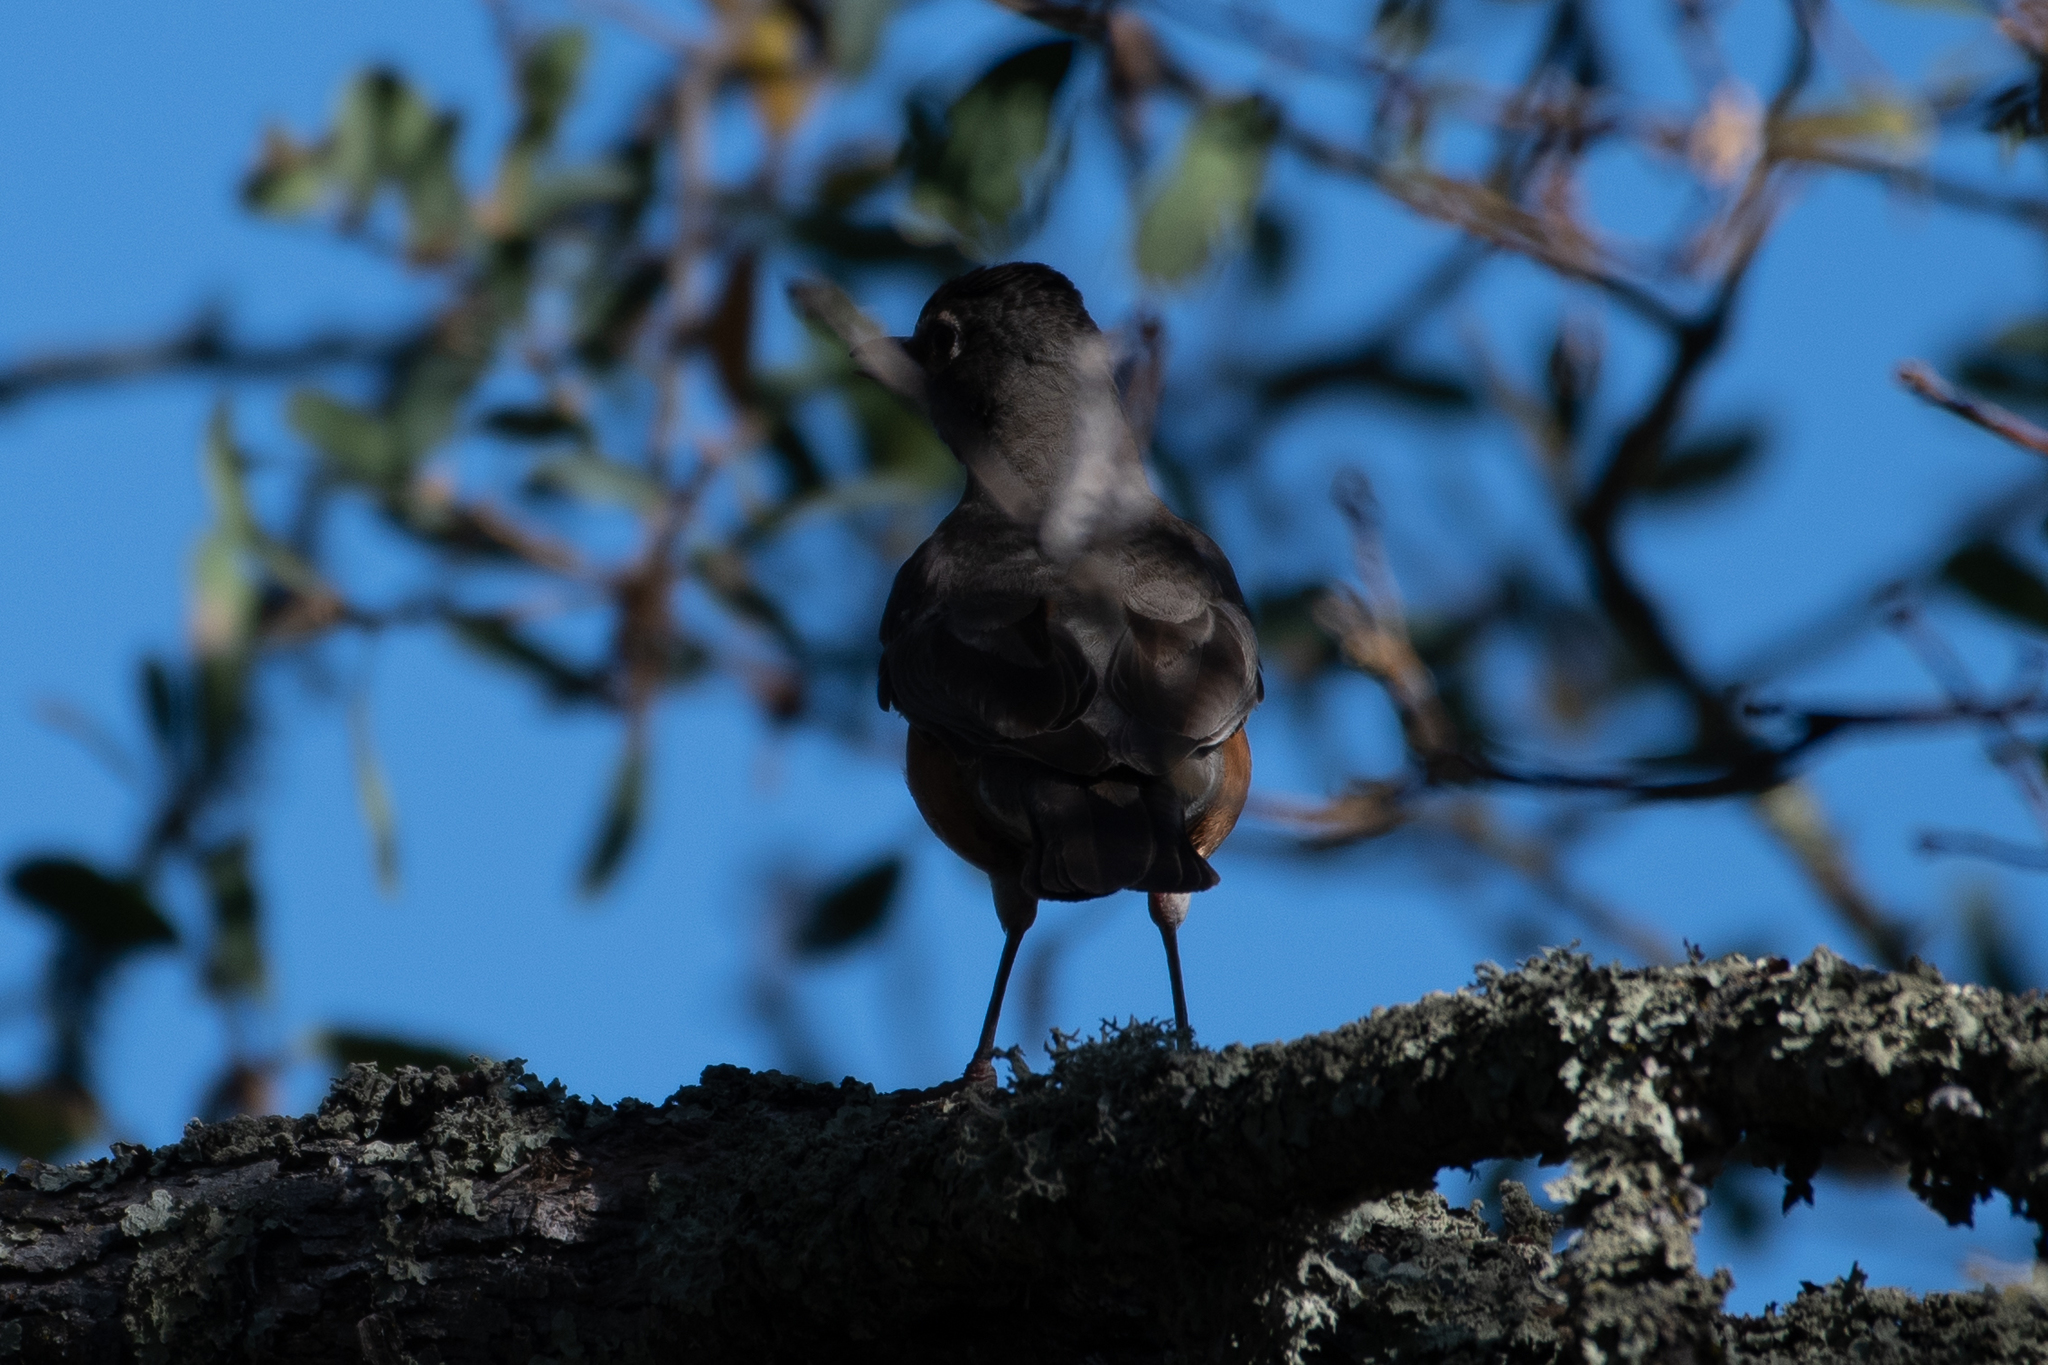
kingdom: Animalia
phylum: Chordata
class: Aves
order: Passeriformes
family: Turdidae
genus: Turdus
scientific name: Turdus migratorius
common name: American robin
